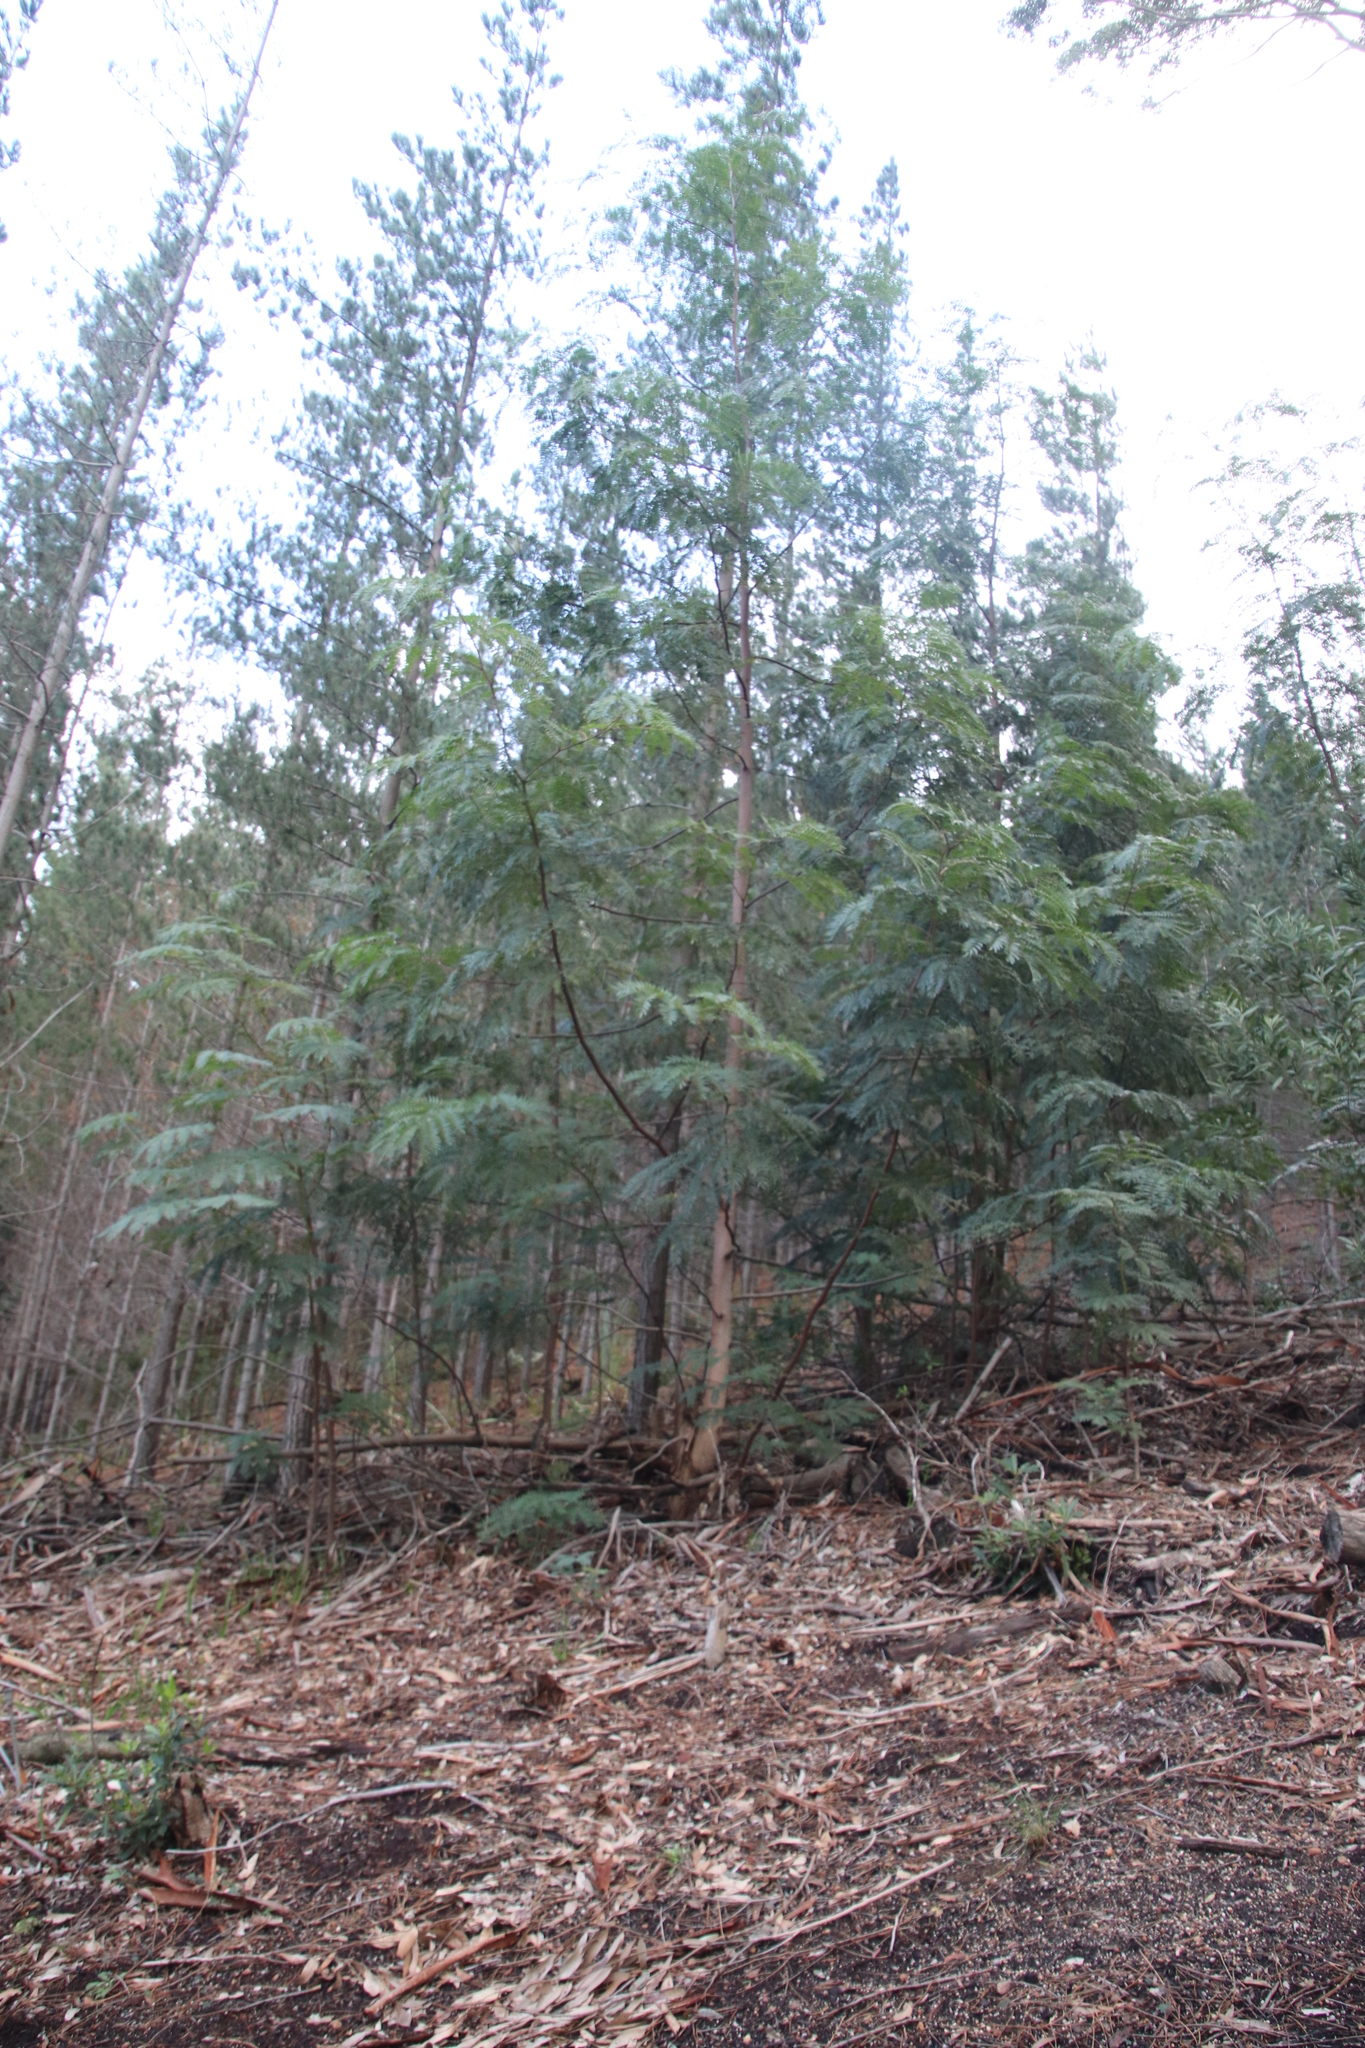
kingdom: Plantae
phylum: Tracheophyta
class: Magnoliopsida
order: Fabales
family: Fabaceae
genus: Acacia
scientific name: Acacia elata
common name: Cedar wattle
